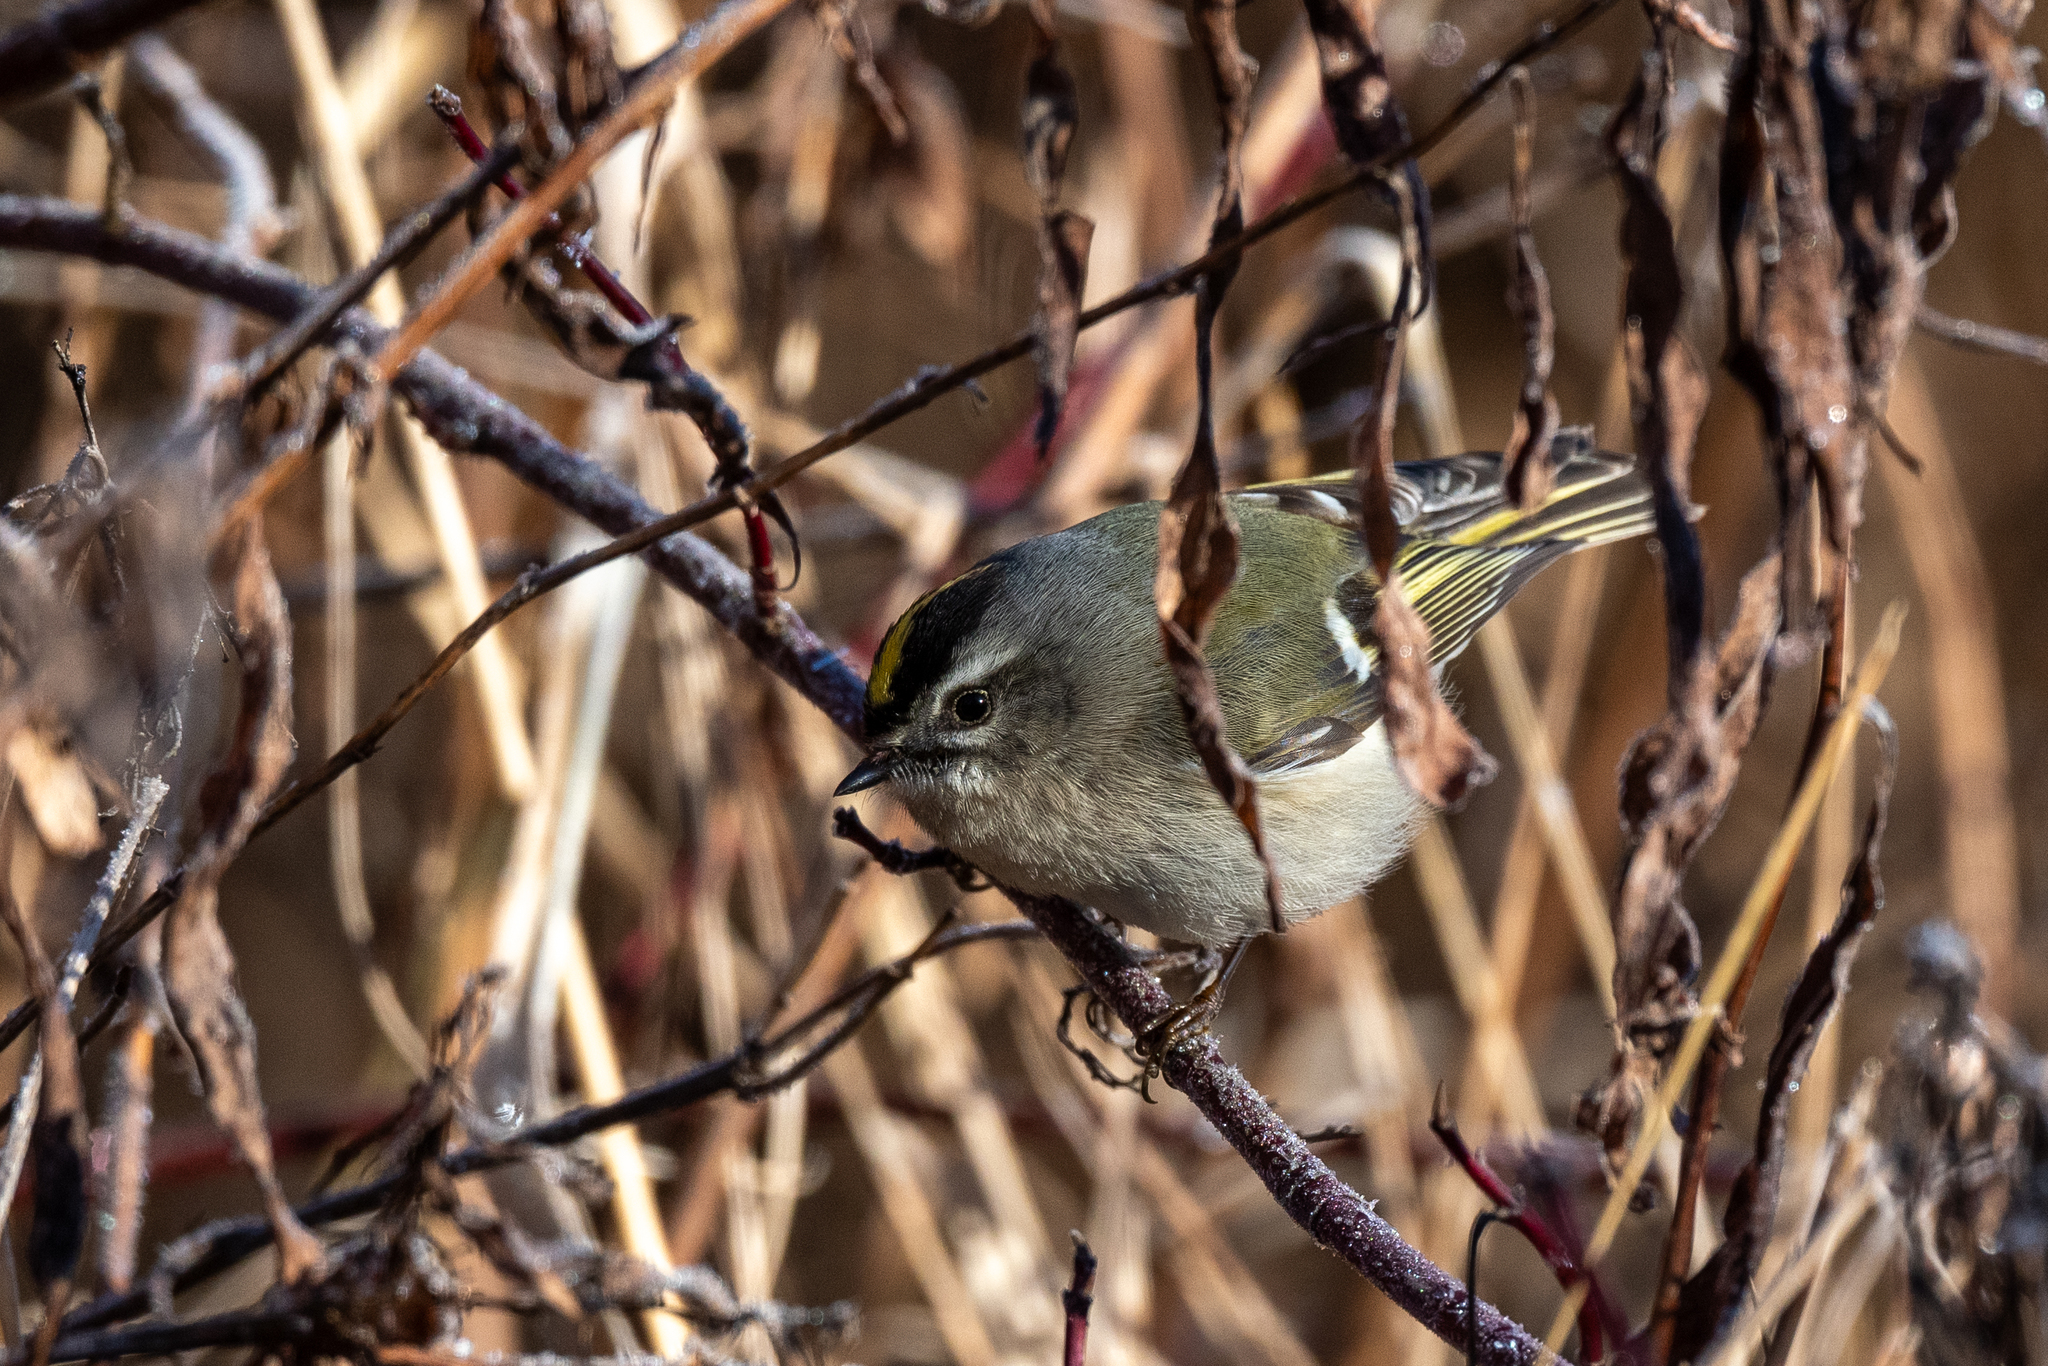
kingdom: Animalia
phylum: Chordata
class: Aves
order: Passeriformes
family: Regulidae
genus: Regulus
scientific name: Regulus satrapa
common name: Golden-crowned kinglet
